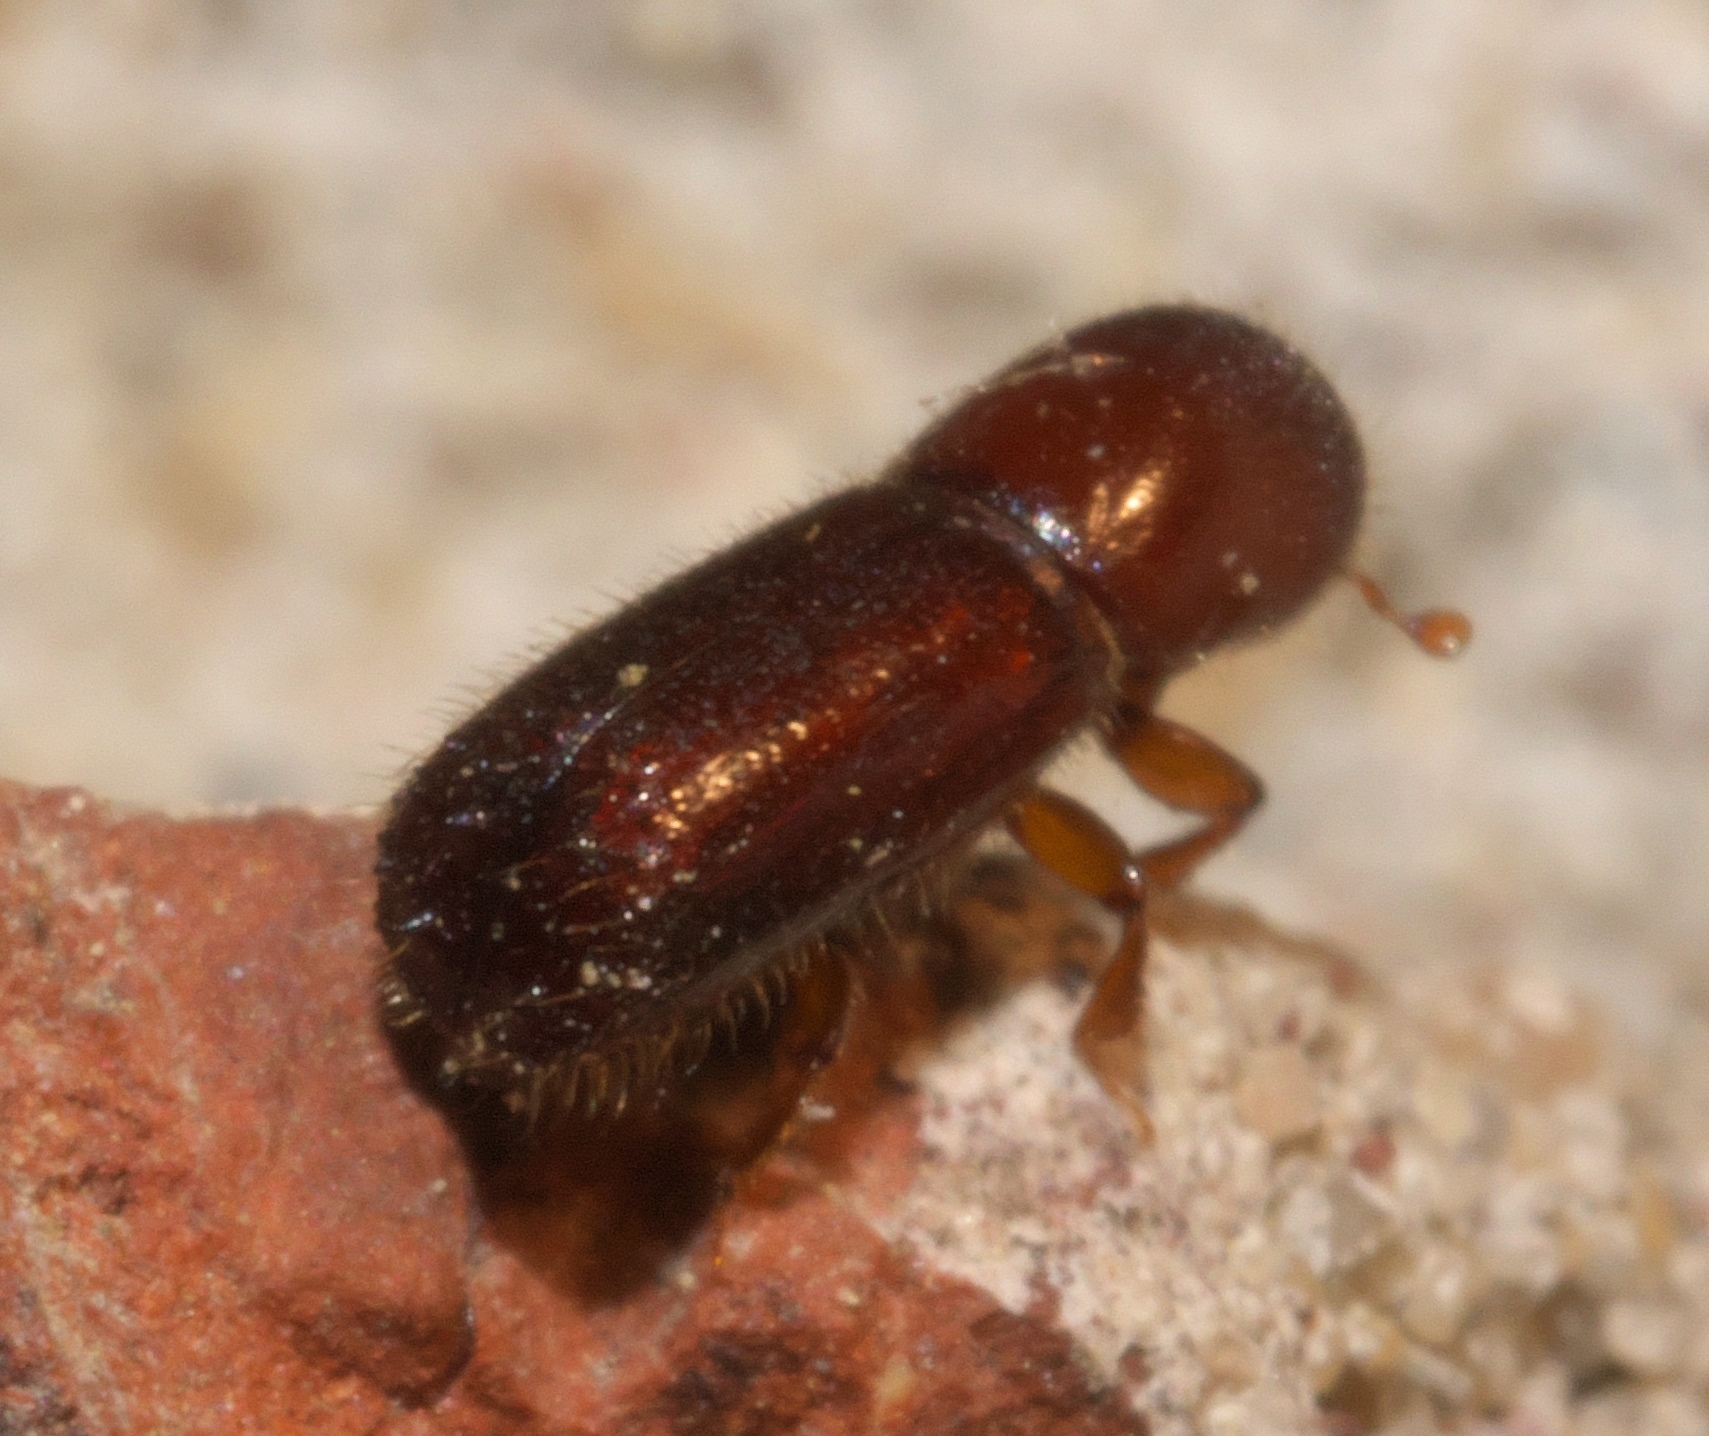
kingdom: Animalia
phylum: Arthropoda
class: Insecta
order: Coleoptera
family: Curculionidae
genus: Xyleborus
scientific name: Xyleborus celsus
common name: Weevil
